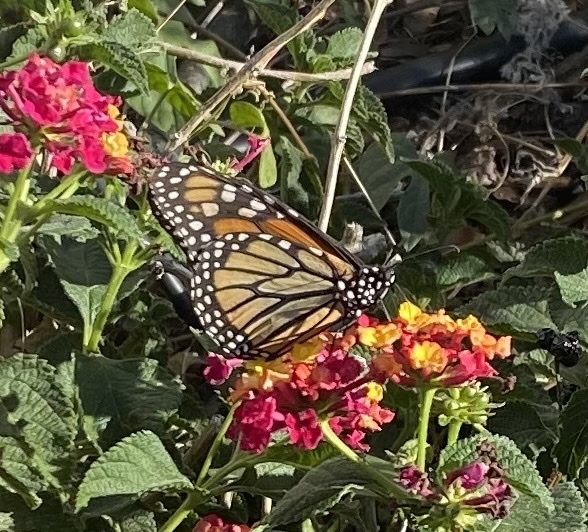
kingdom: Animalia
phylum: Arthropoda
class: Insecta
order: Lepidoptera
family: Nymphalidae
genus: Danaus
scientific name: Danaus plexippus
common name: Monarch
